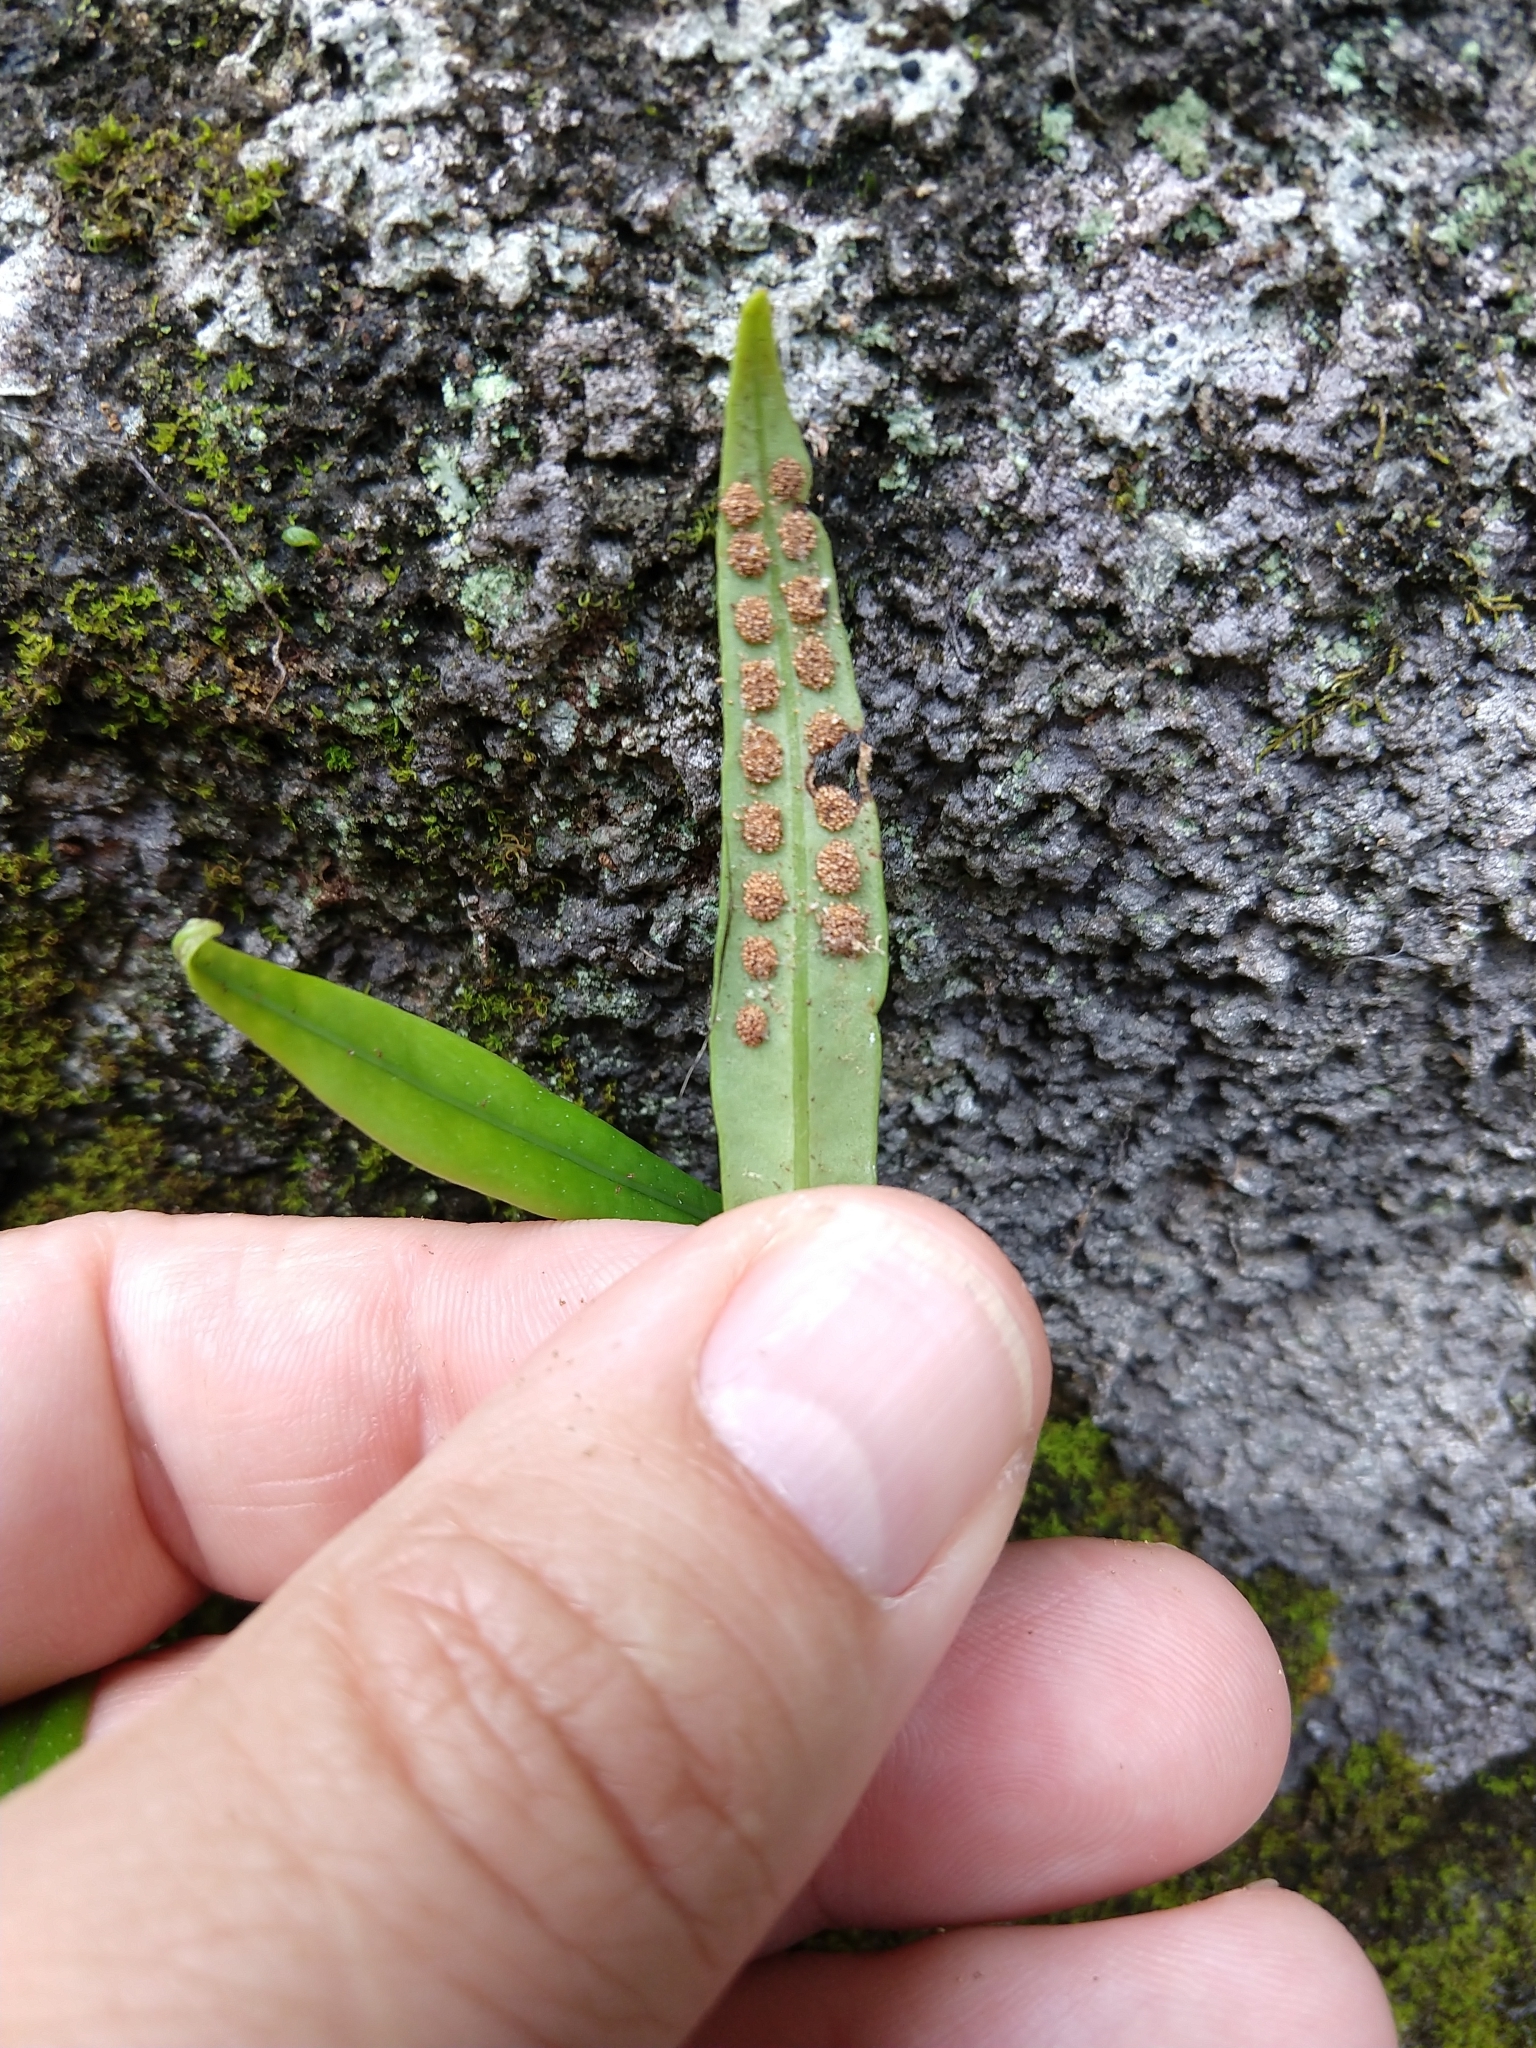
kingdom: Plantae
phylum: Tracheophyta
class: Polypodiopsida
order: Polypodiales
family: Polypodiaceae
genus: Lepisorus
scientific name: Lepisorus thunbergianus
